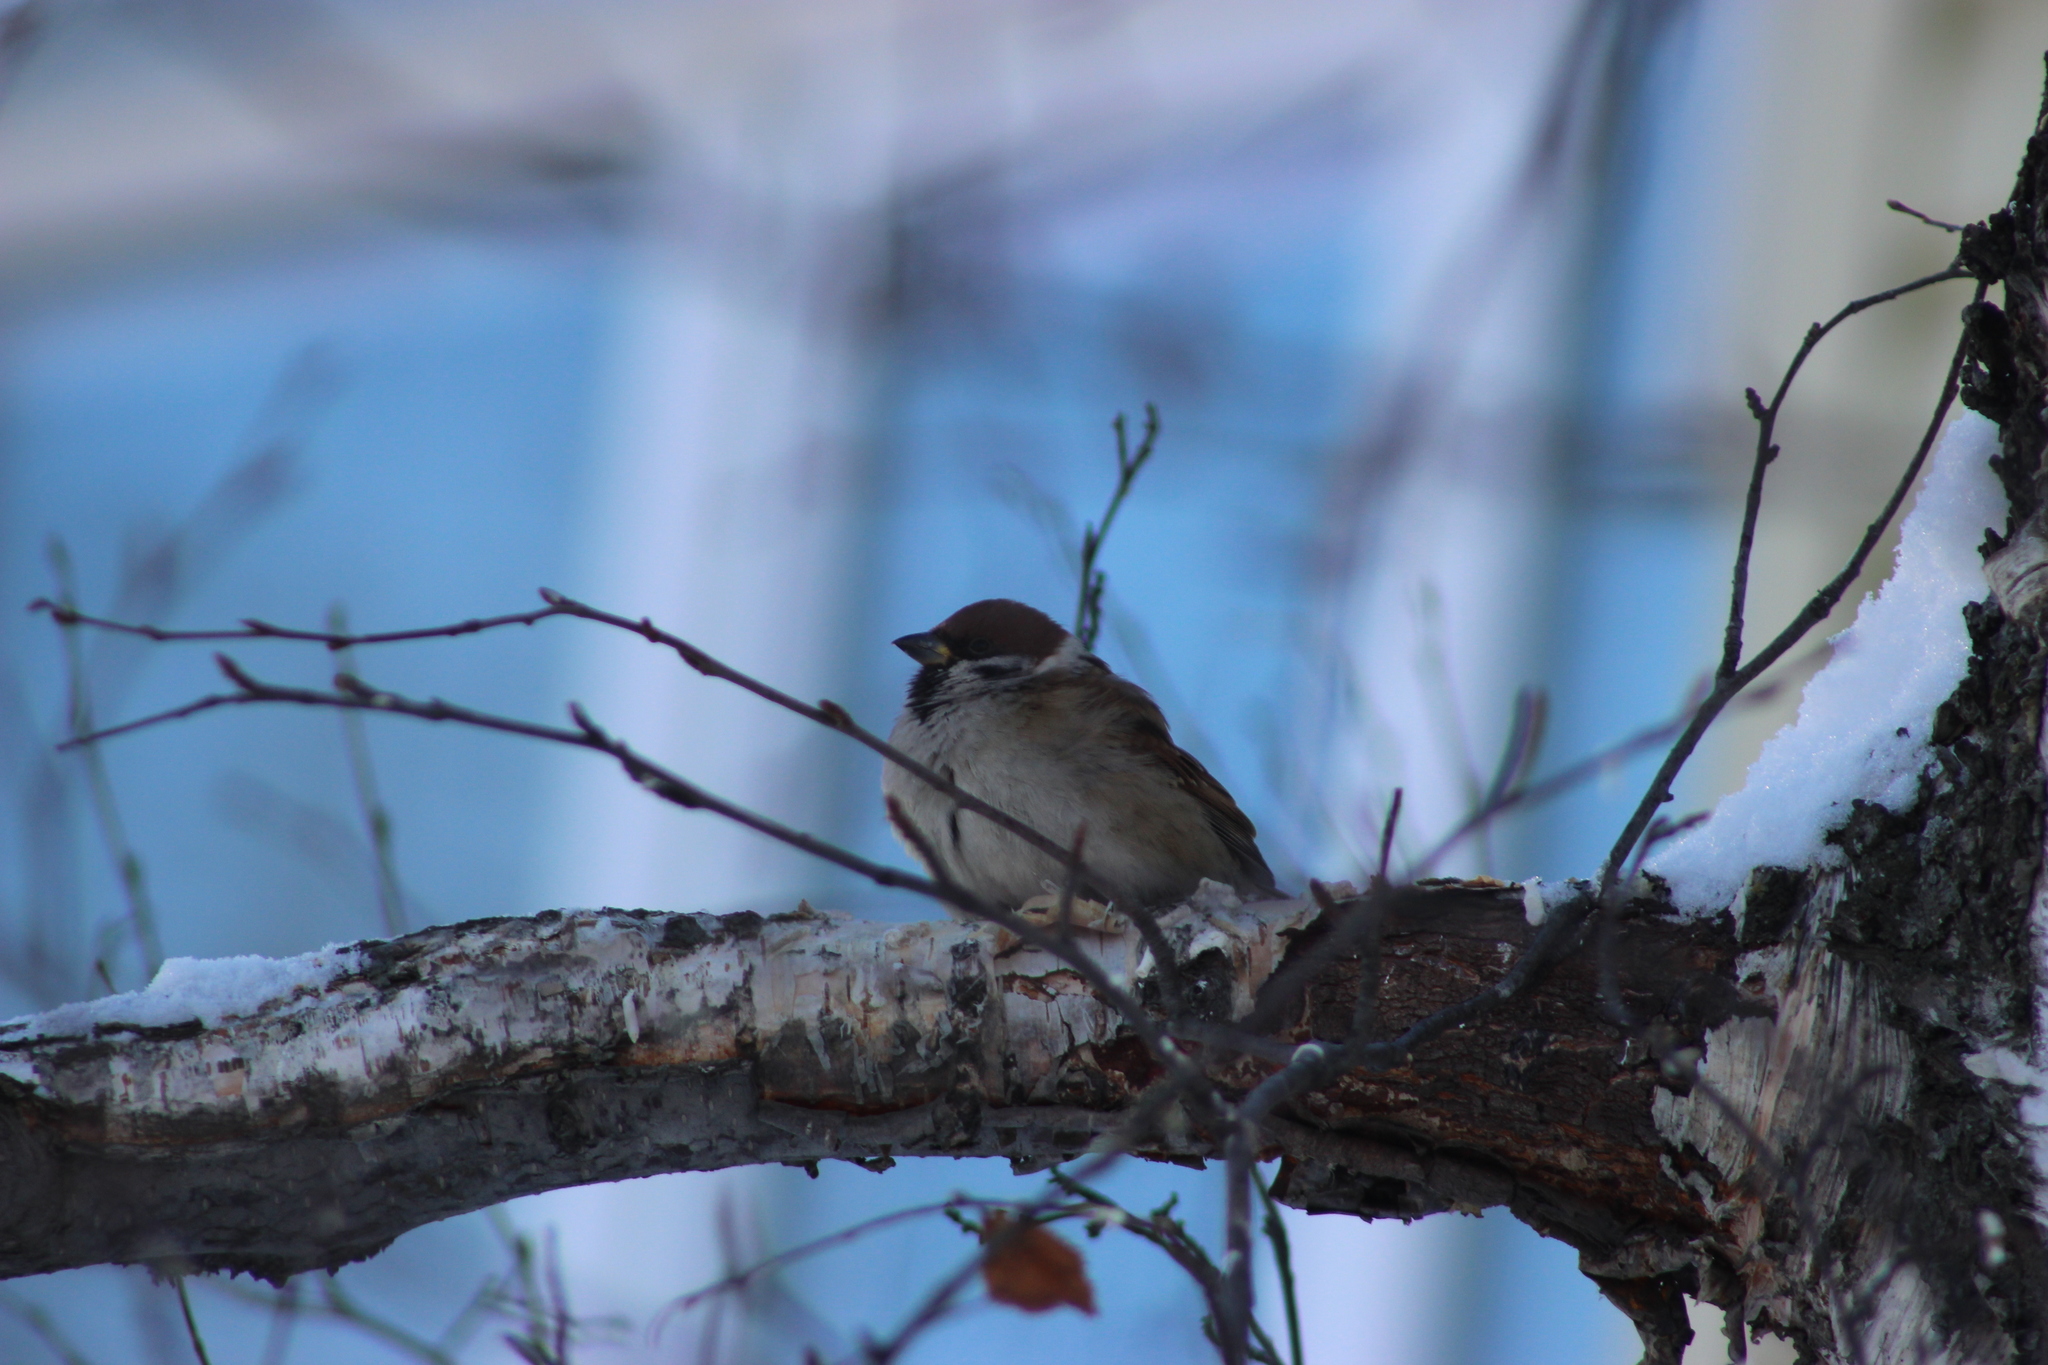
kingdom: Animalia
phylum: Chordata
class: Aves
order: Passeriformes
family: Passeridae
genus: Passer
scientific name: Passer montanus
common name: Eurasian tree sparrow
